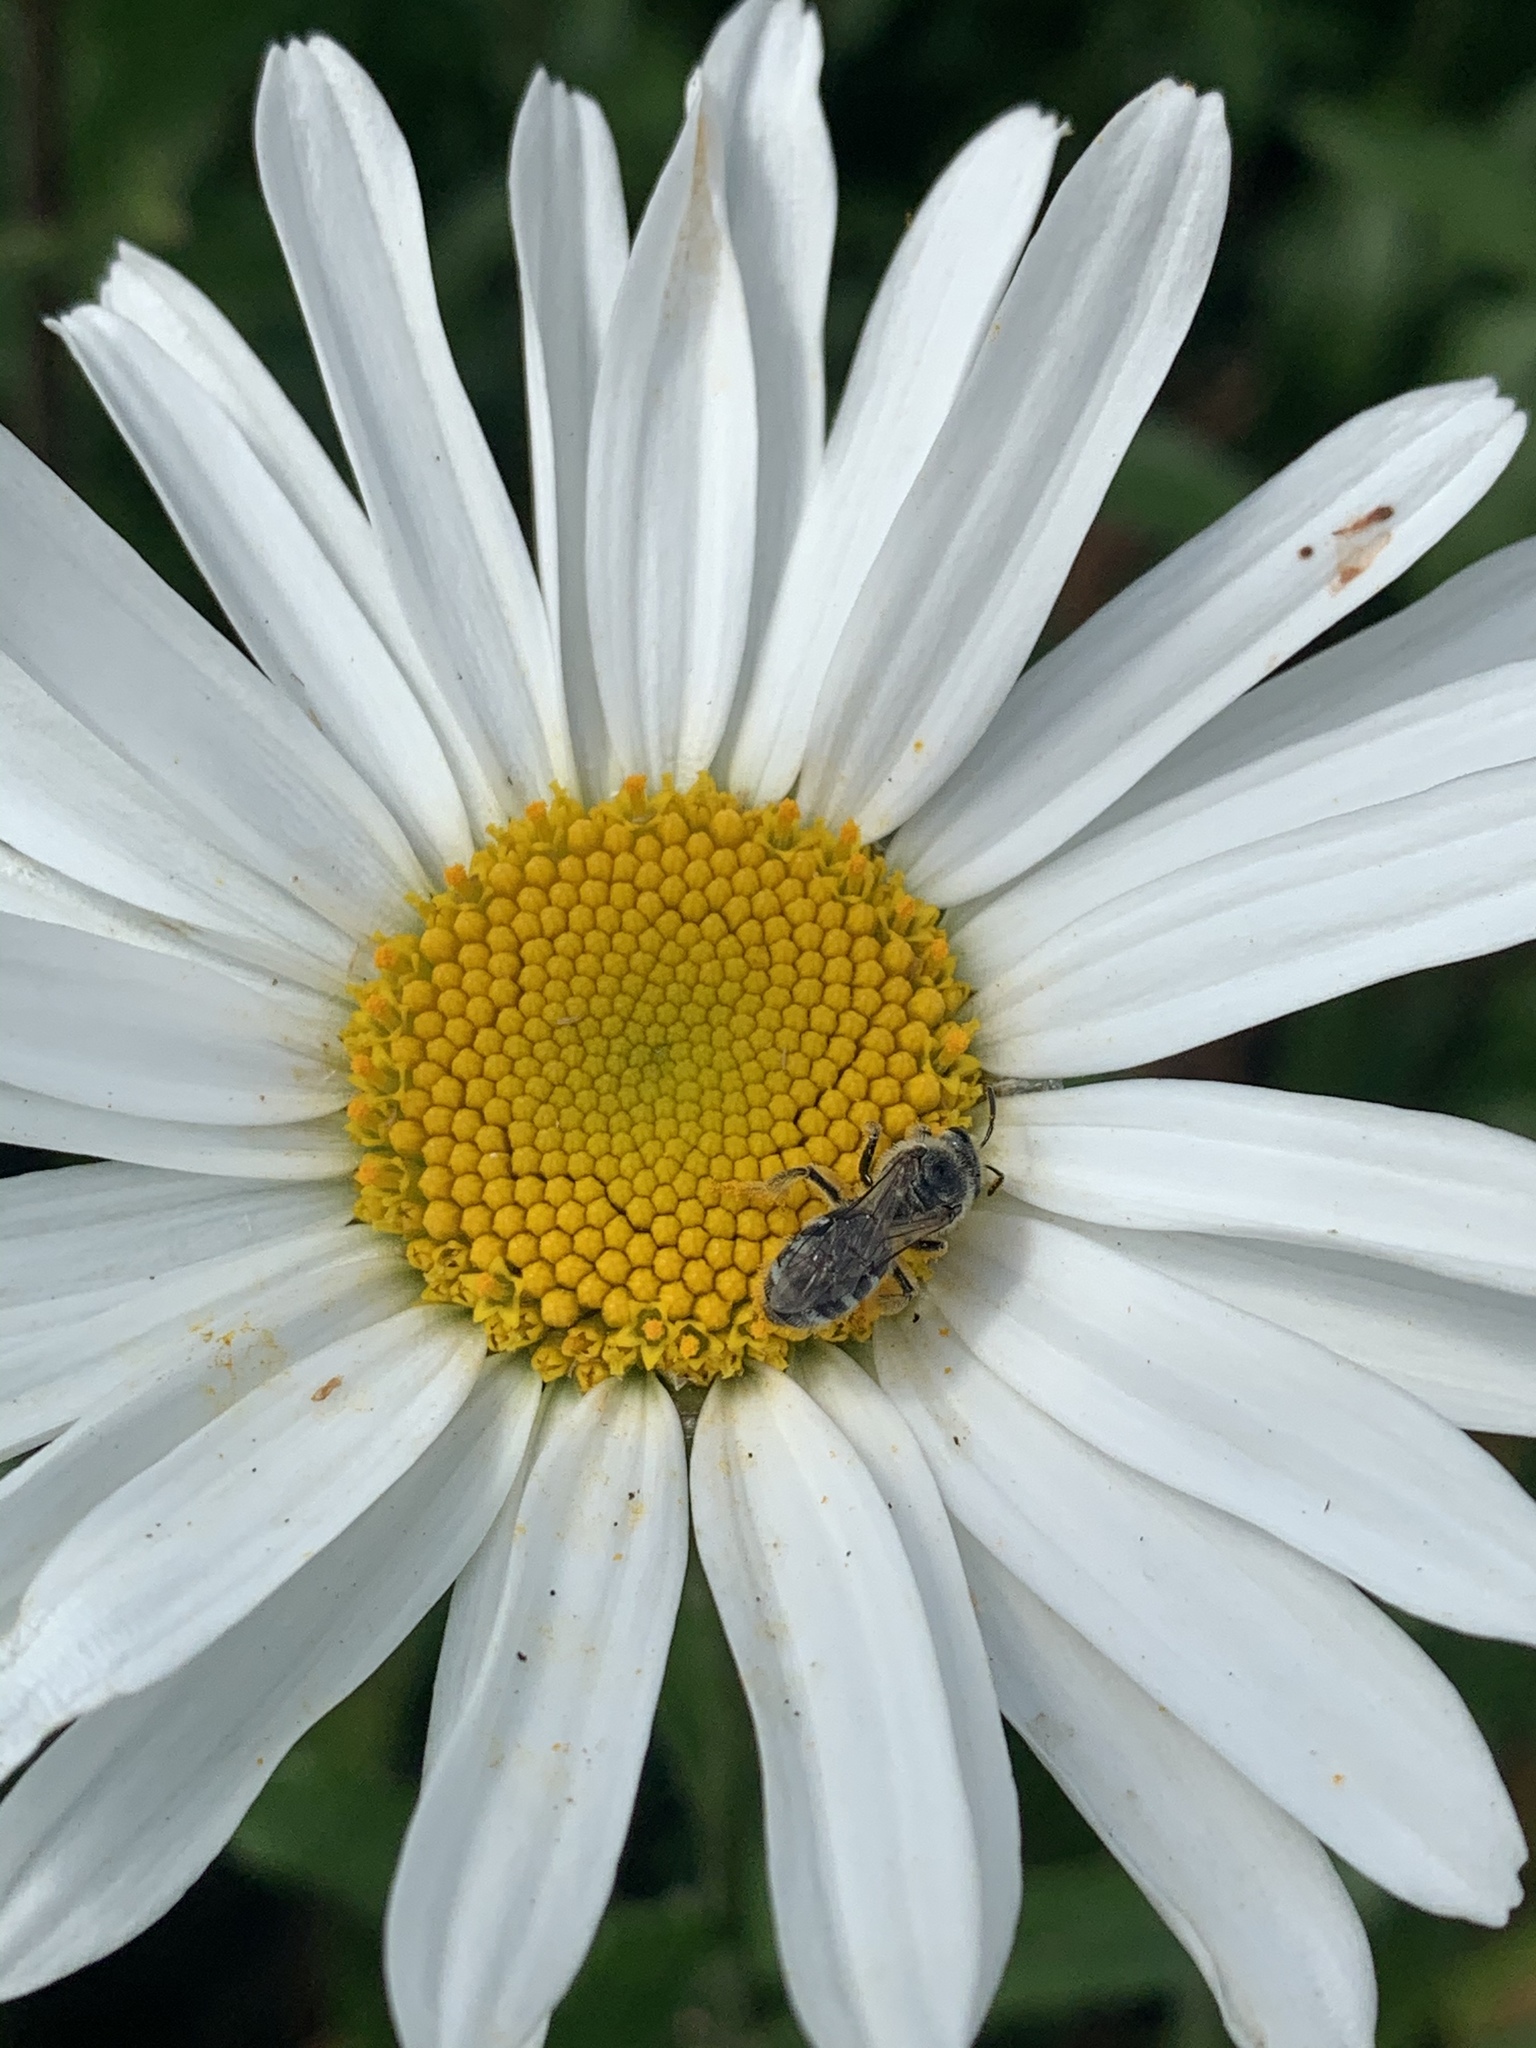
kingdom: Animalia
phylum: Arthropoda
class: Insecta
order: Hymenoptera
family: Halictidae
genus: Lasioglossum
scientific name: Lasioglossum sisymbrii
